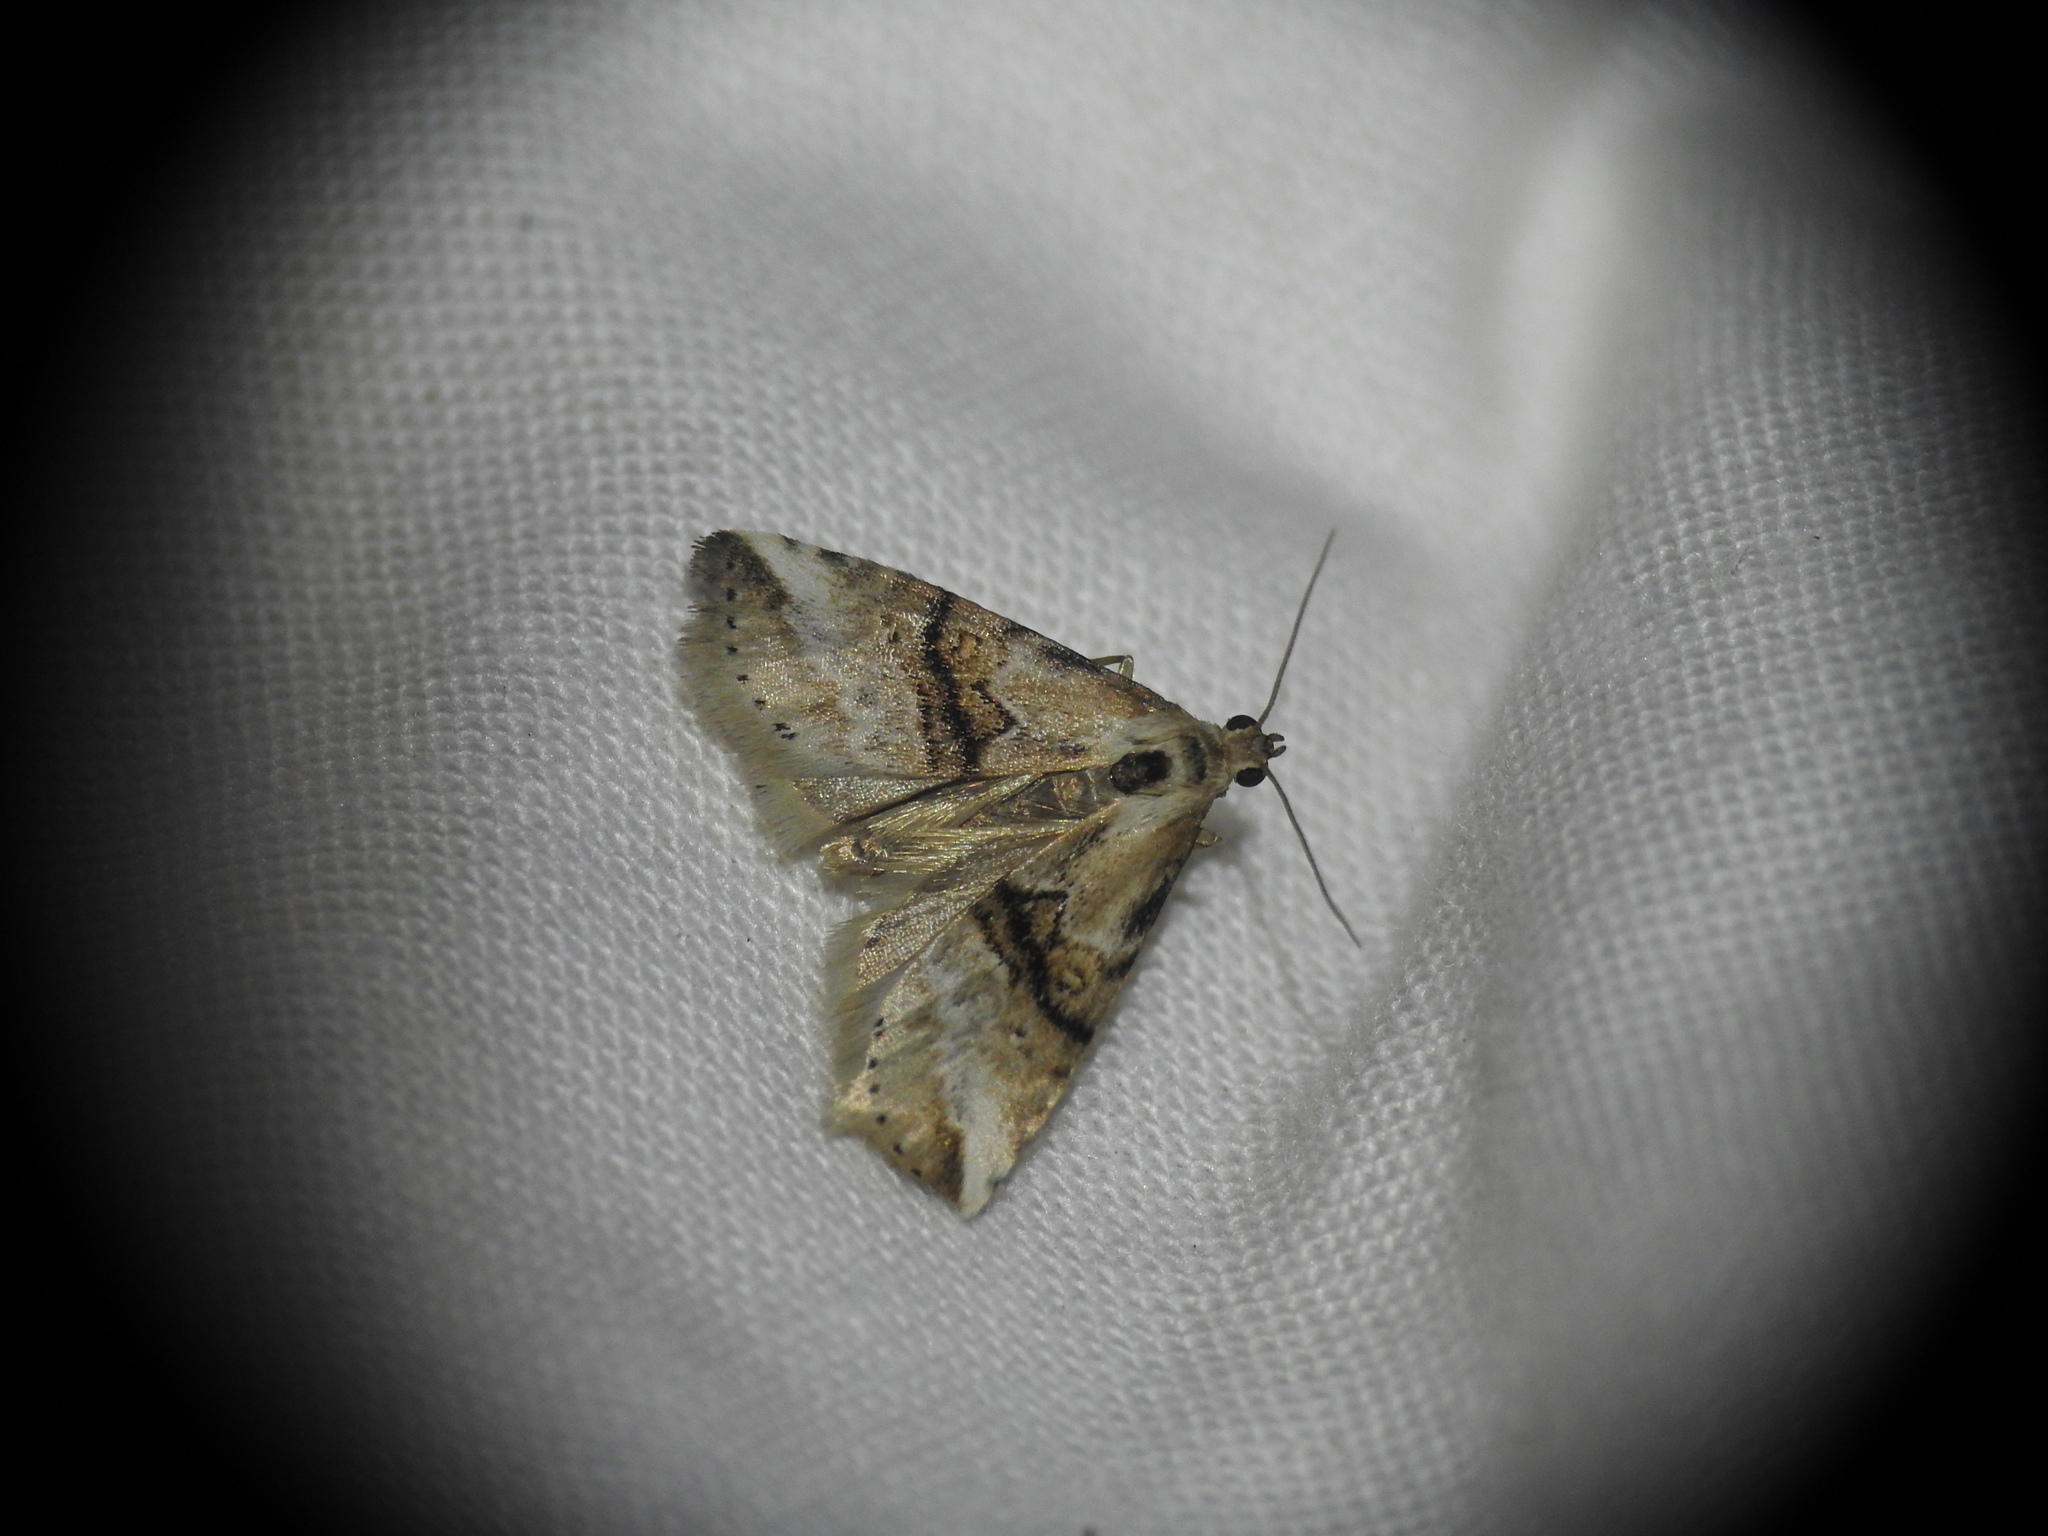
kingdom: Animalia
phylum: Arthropoda
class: Insecta
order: Lepidoptera
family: Erebidae
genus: Zebeeba
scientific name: Zebeeba falsalis
